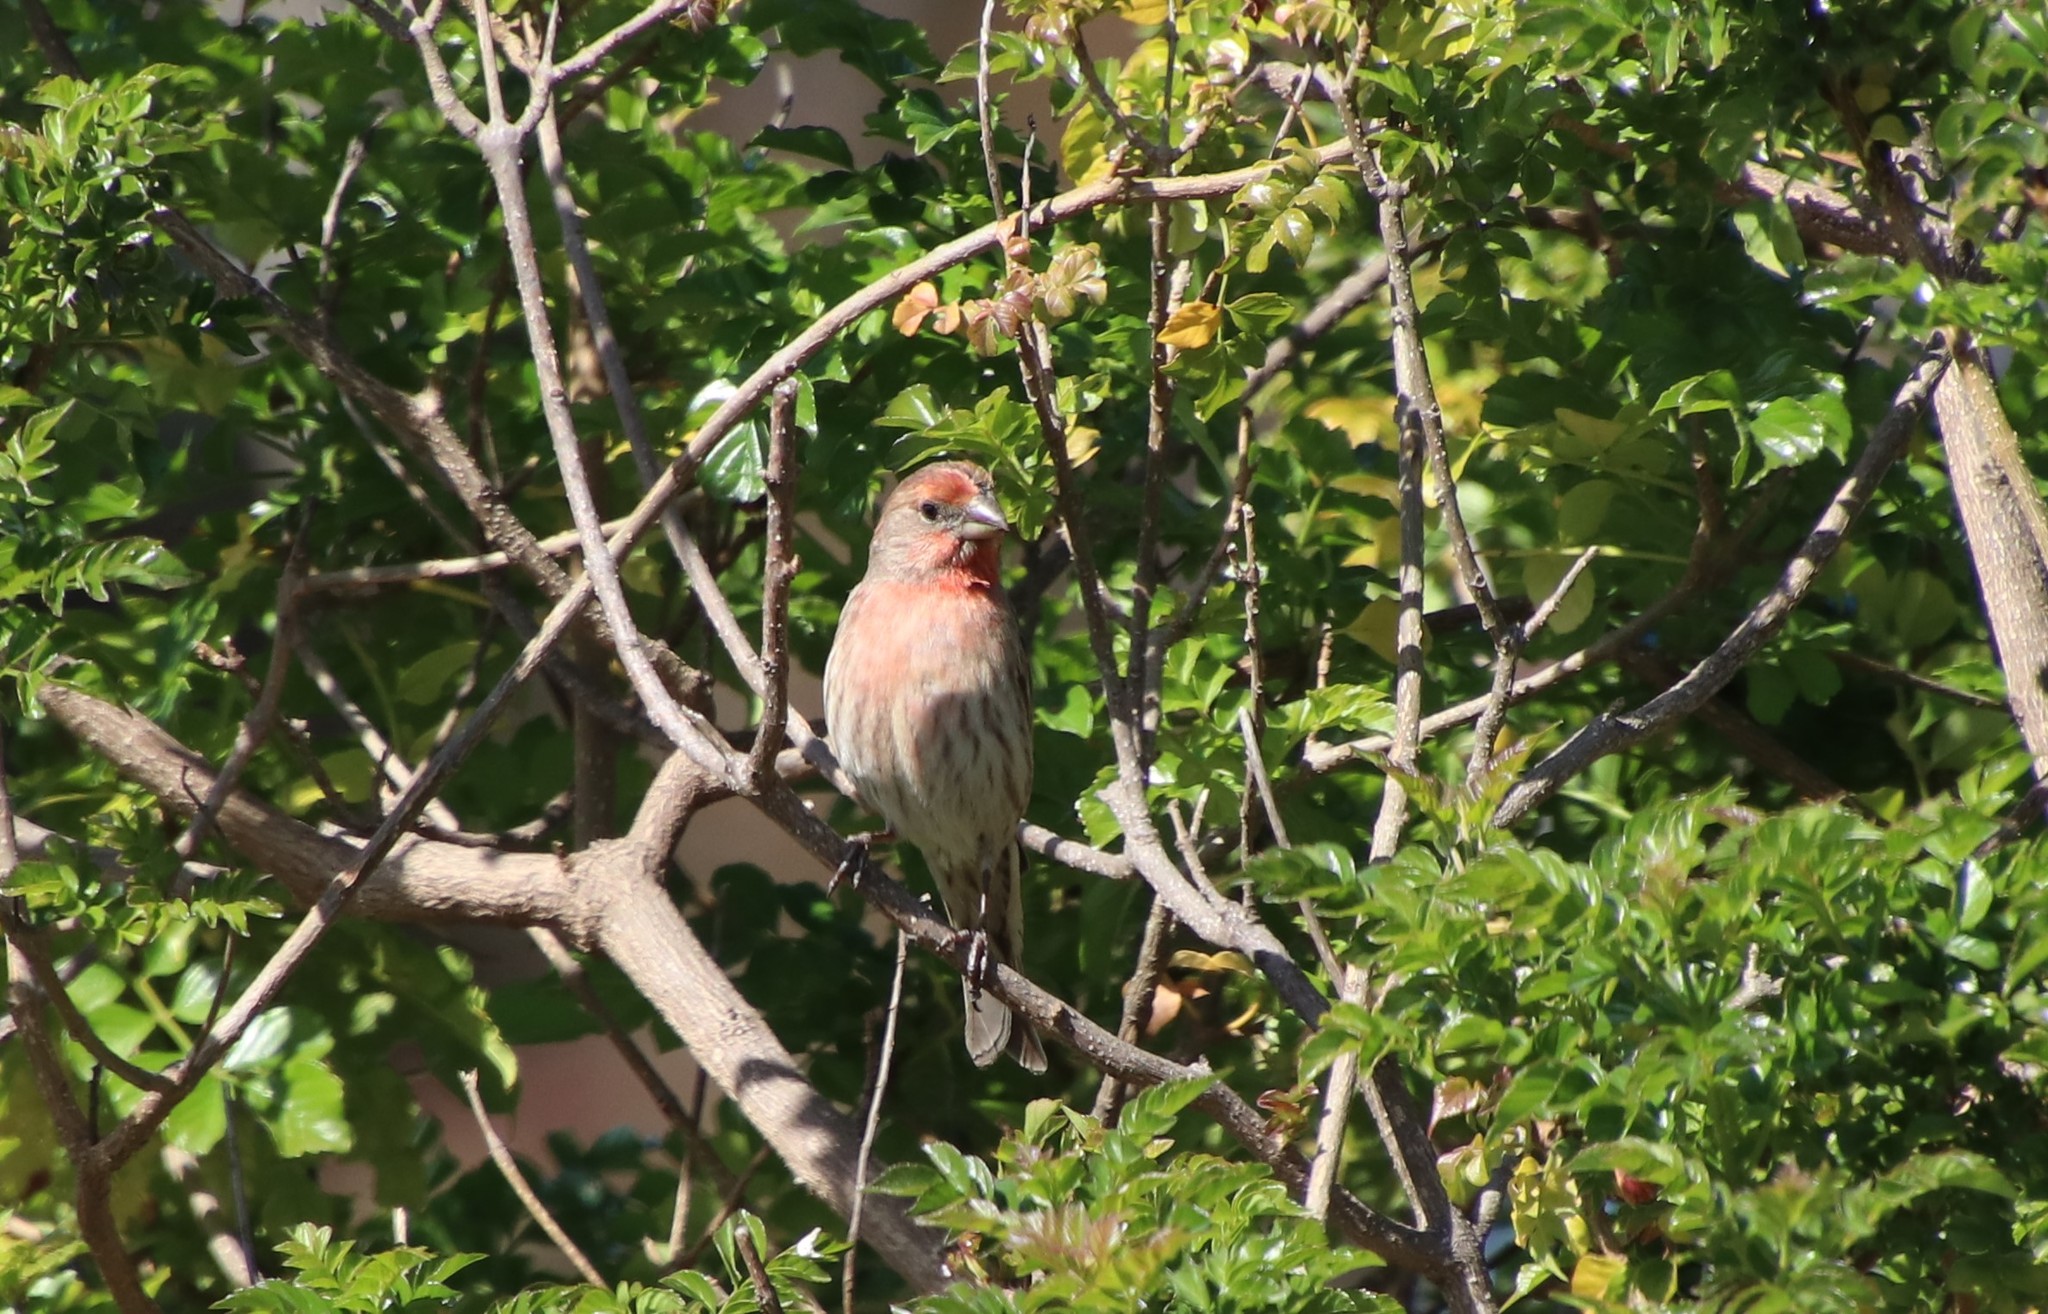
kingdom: Animalia
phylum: Chordata
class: Aves
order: Passeriformes
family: Fringillidae
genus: Haemorhous
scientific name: Haemorhous mexicanus
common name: House finch
